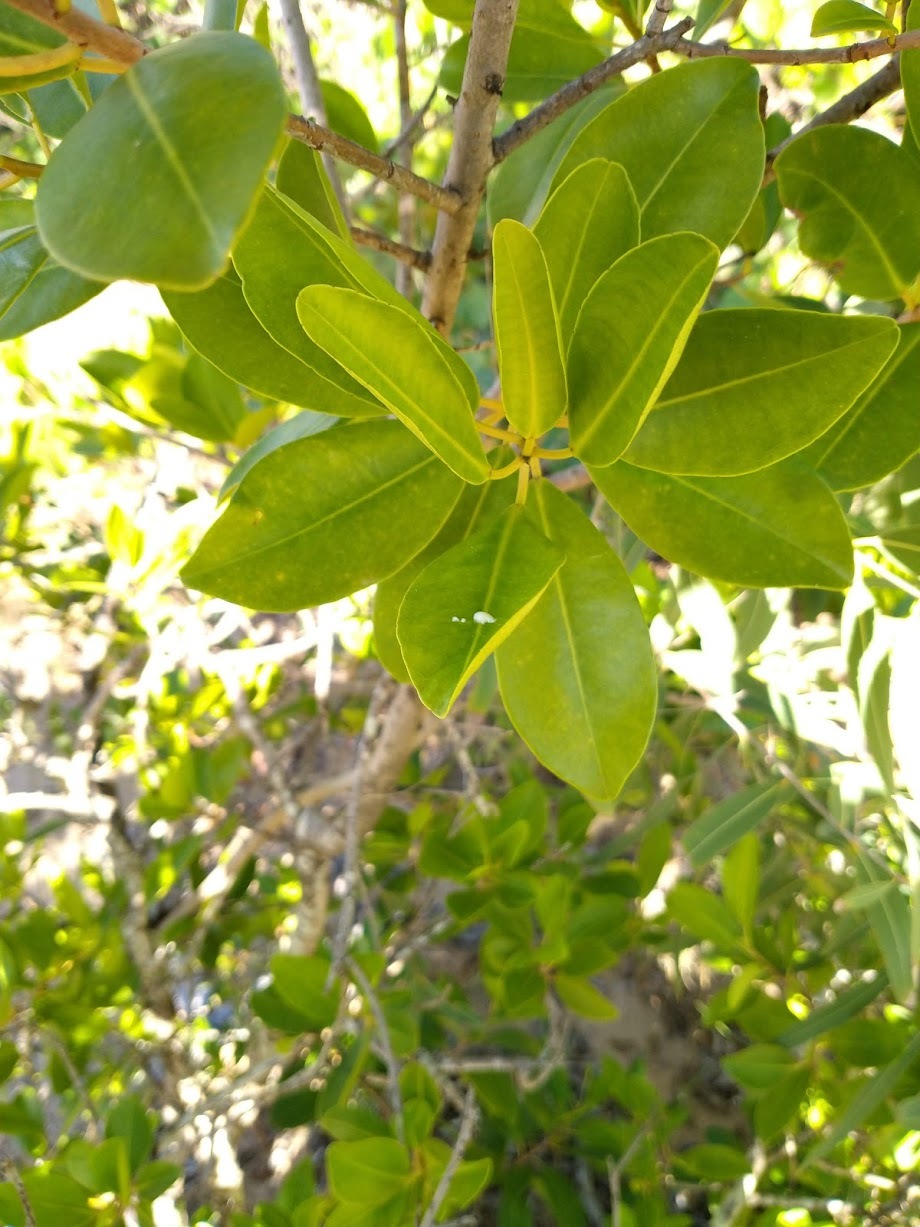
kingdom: Plantae
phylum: Tracheophyta
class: Magnoliopsida
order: Malpighiales
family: Euphorbiaceae
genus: Excoecaria
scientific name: Excoecaria agallocha
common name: River poisontree
